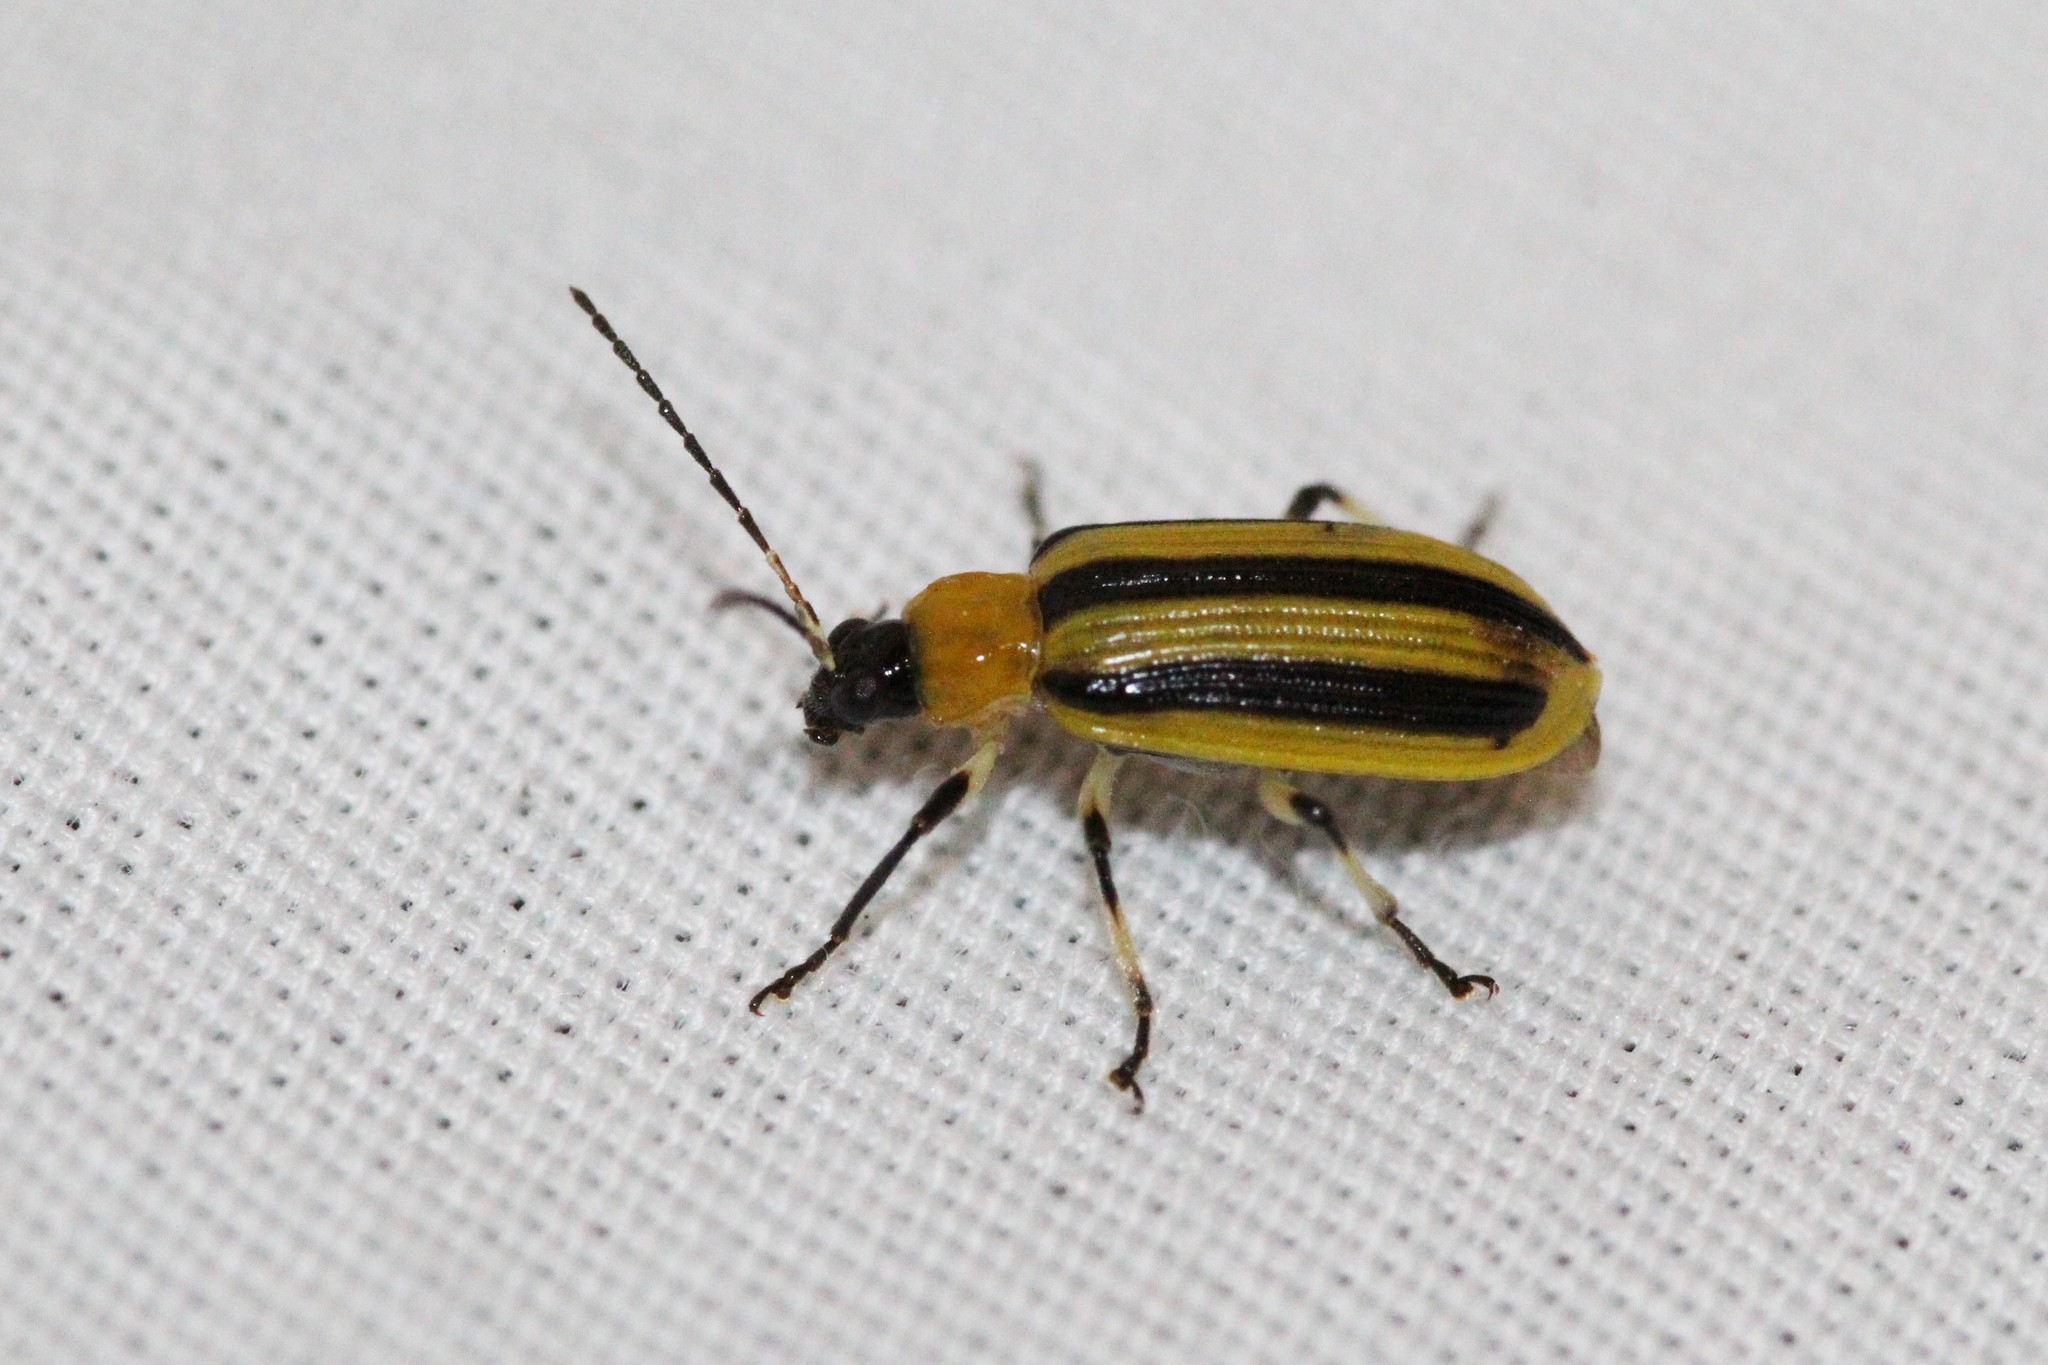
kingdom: Animalia
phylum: Arthropoda
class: Insecta
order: Coleoptera
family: Chrysomelidae
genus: Acalymma
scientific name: Acalymma vittatum
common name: Striped cucumber beetle
